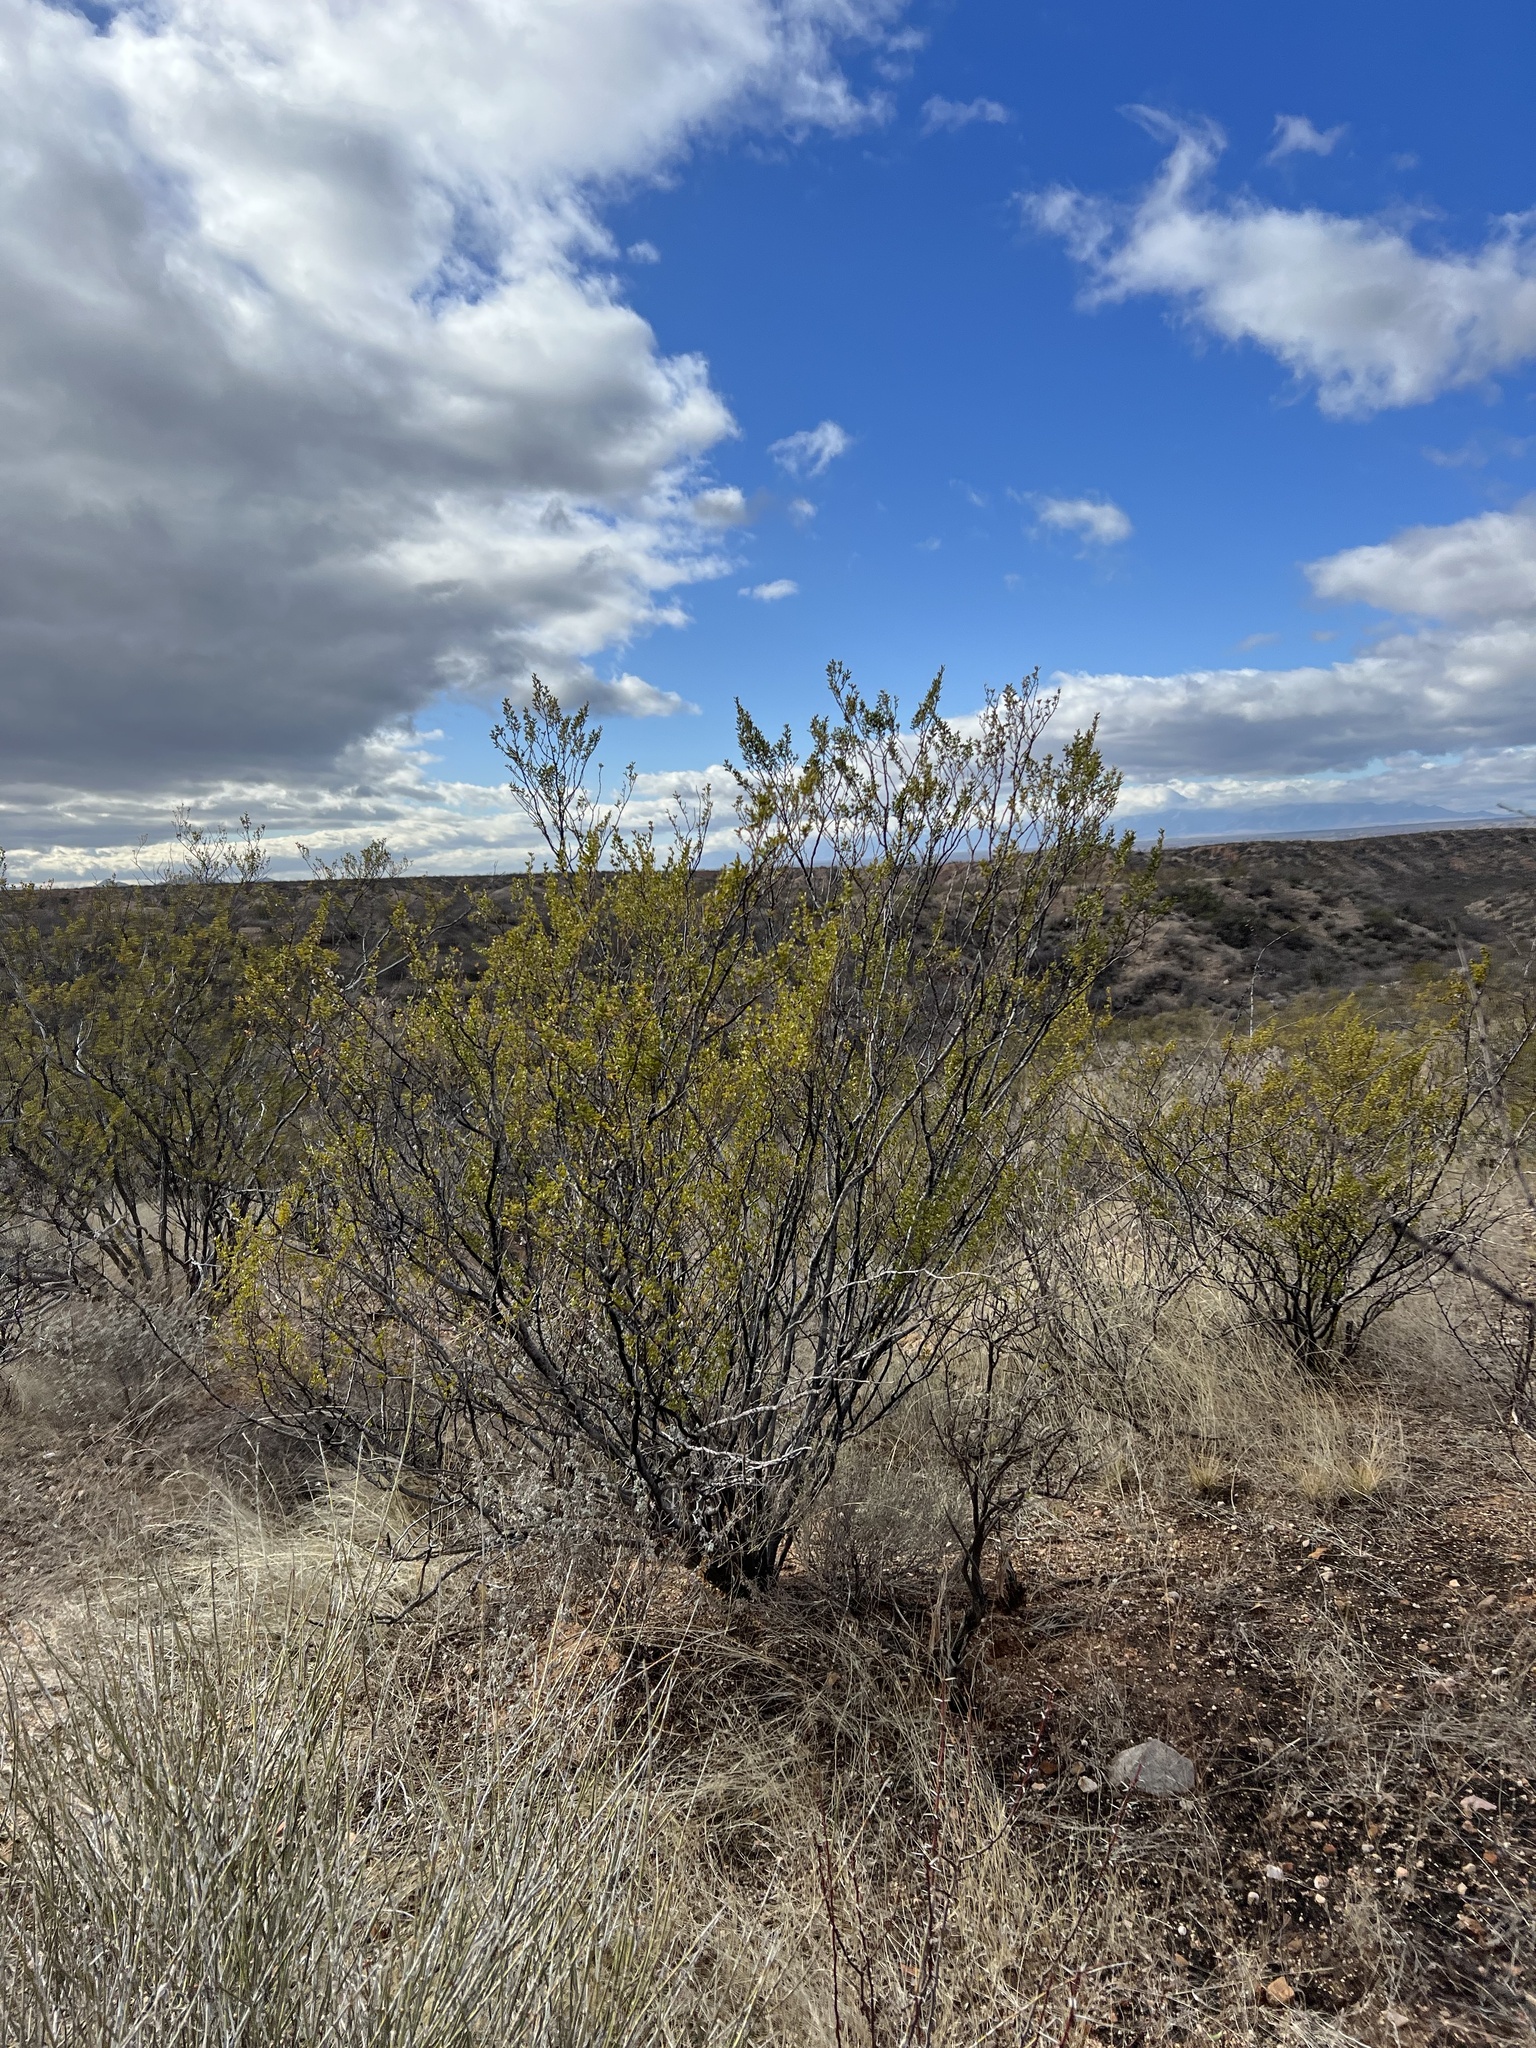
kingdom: Plantae
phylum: Tracheophyta
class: Magnoliopsida
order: Zygophyllales
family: Zygophyllaceae
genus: Larrea
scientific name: Larrea tridentata
